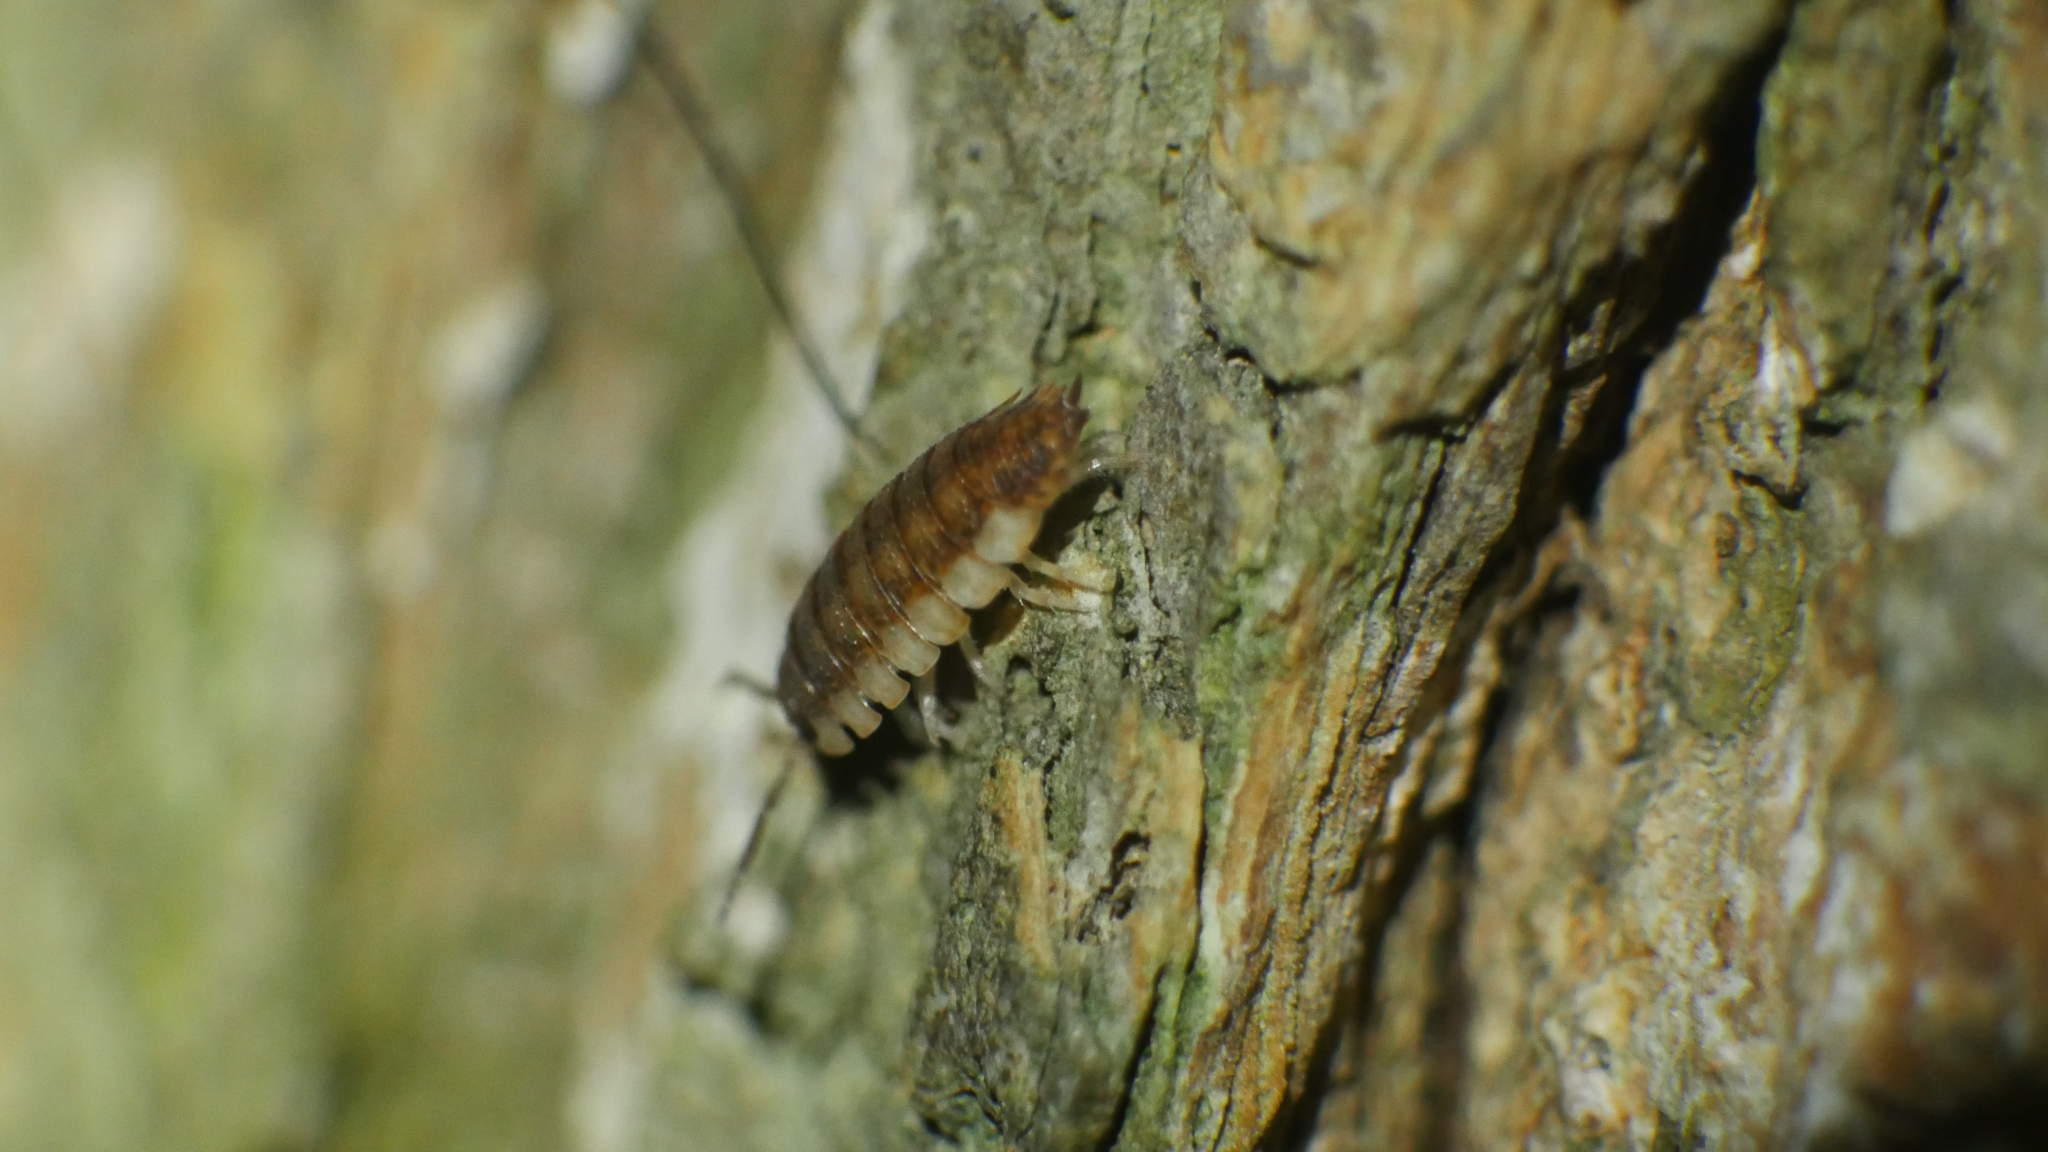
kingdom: Animalia
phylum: Arthropoda
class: Malacostraca
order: Isopoda
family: Porcellionidae
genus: Porcellio
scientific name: Porcellio scaber
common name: Common rough woodlouse
